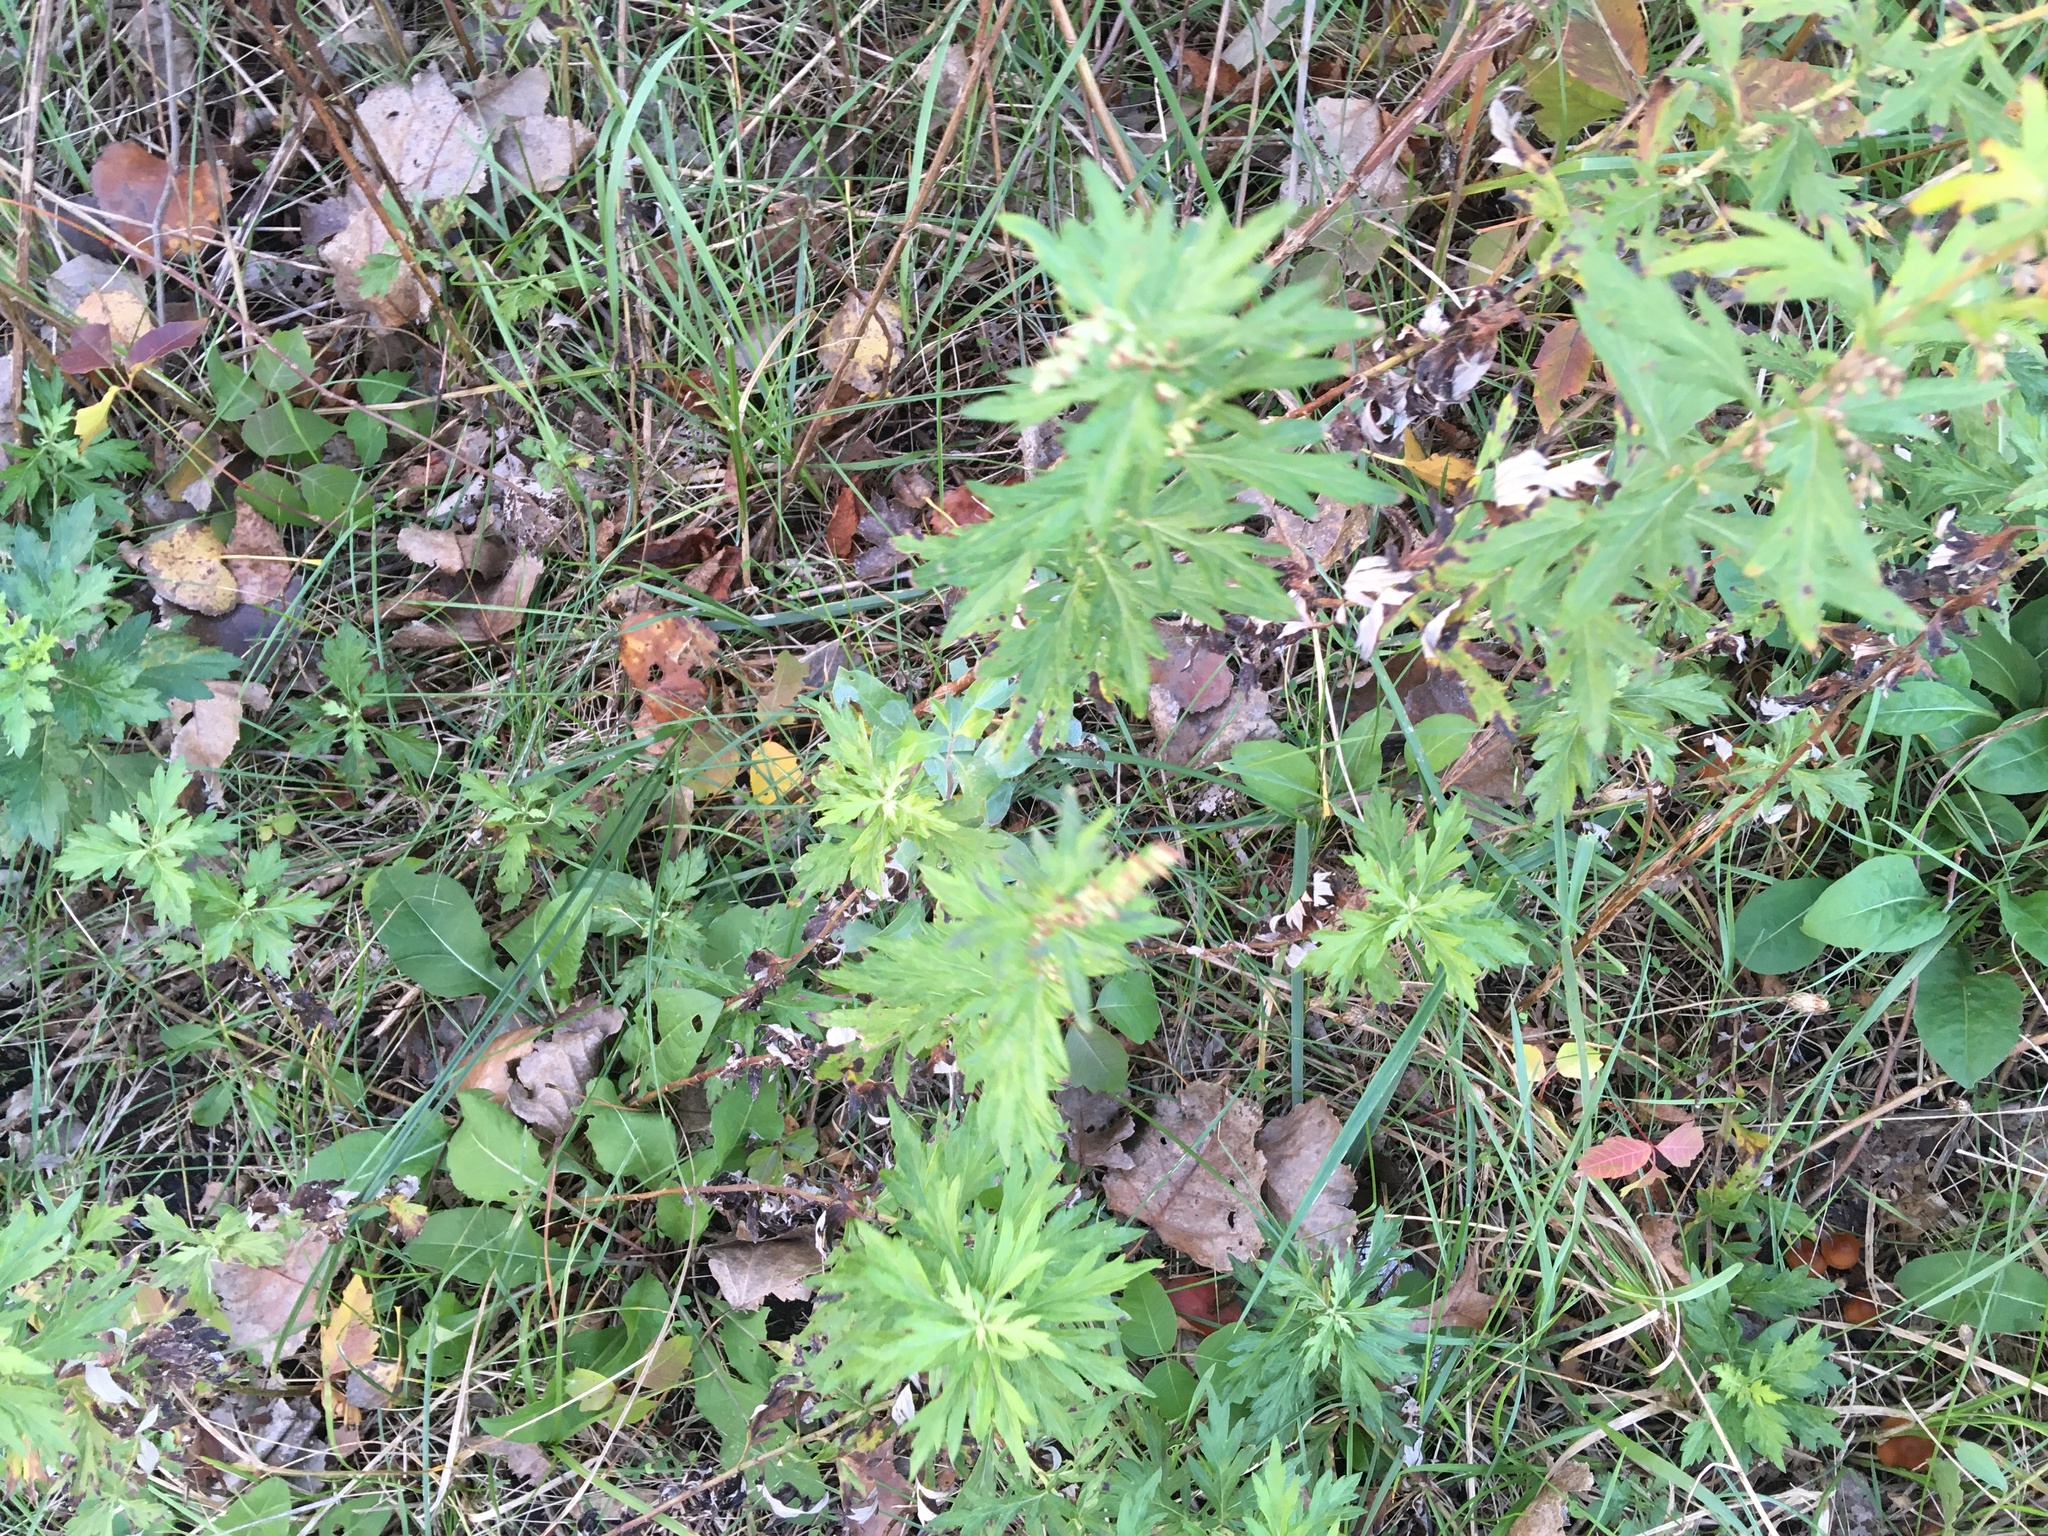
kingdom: Plantae
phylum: Tracheophyta
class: Magnoliopsida
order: Asterales
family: Asteraceae
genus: Artemisia
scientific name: Artemisia vulgaris
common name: Mugwort
